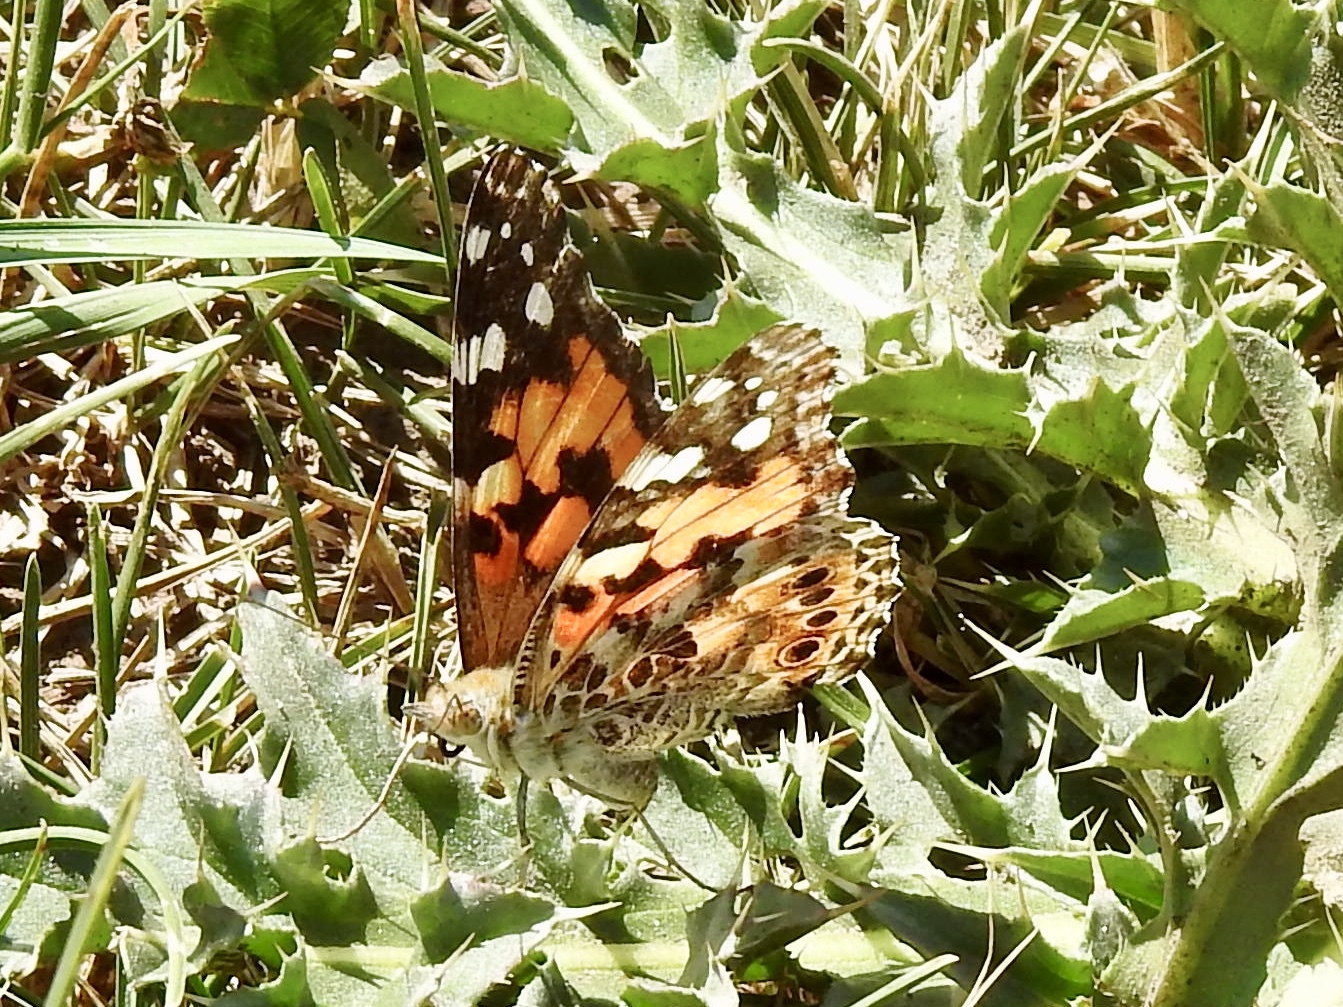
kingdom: Animalia
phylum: Arthropoda
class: Insecta
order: Lepidoptera
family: Nymphalidae
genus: Vanessa
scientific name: Vanessa cardui
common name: Painted lady
